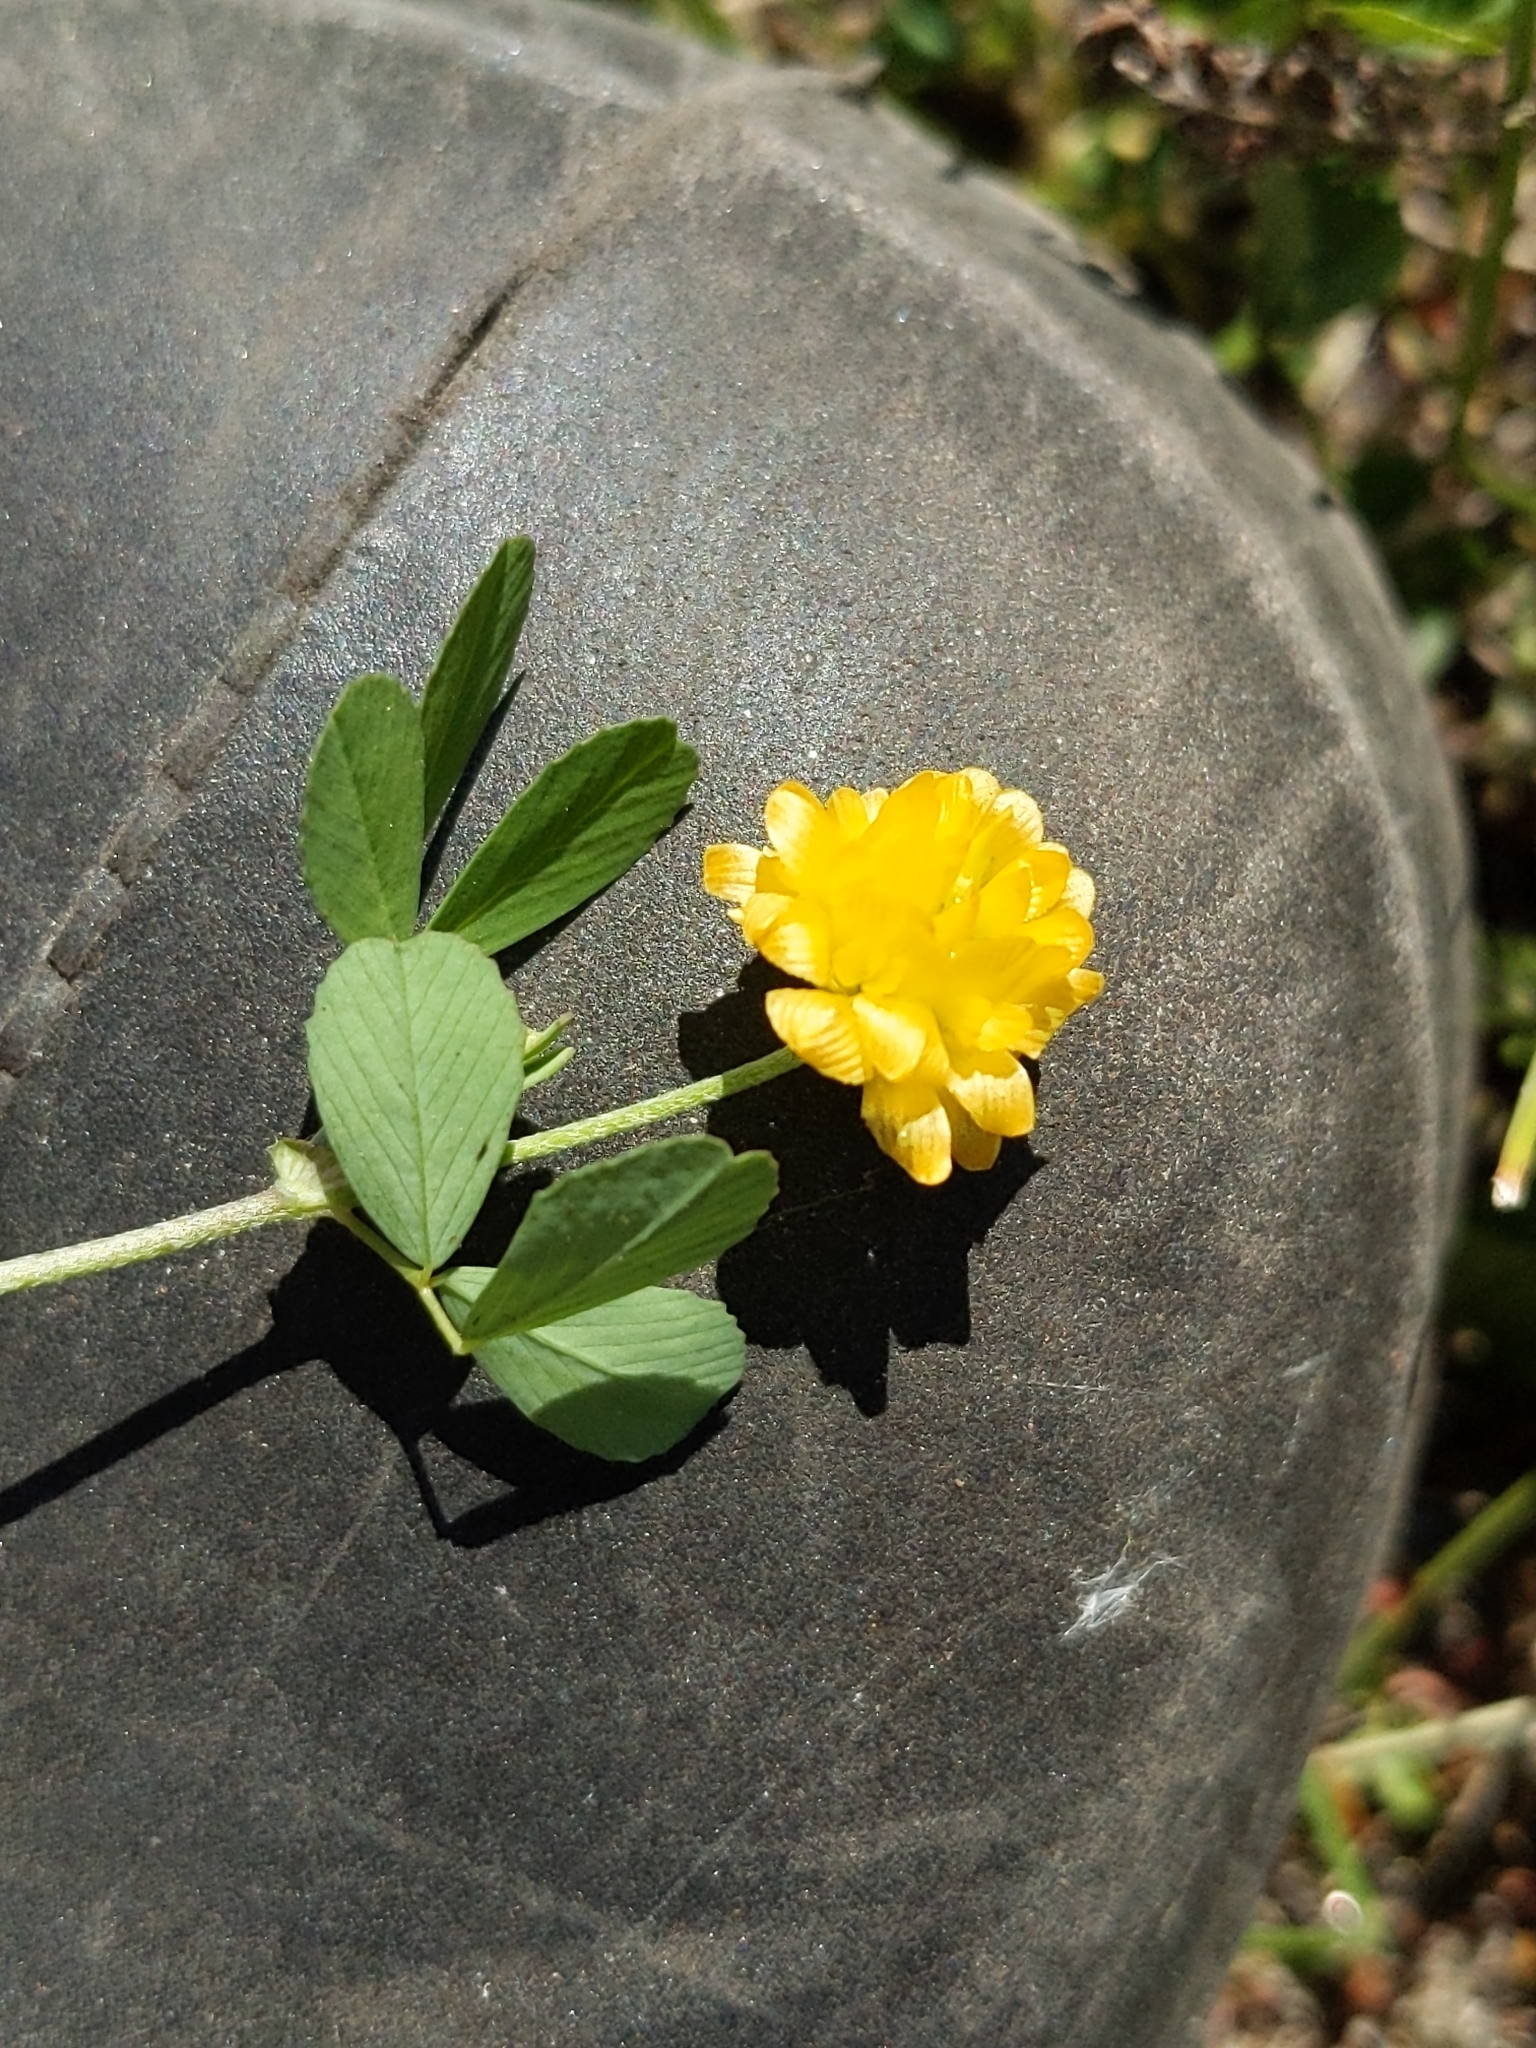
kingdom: Plantae
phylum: Tracheophyta
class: Magnoliopsida
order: Fabales
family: Fabaceae
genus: Trifolium
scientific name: Trifolium campestre
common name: Field clover
